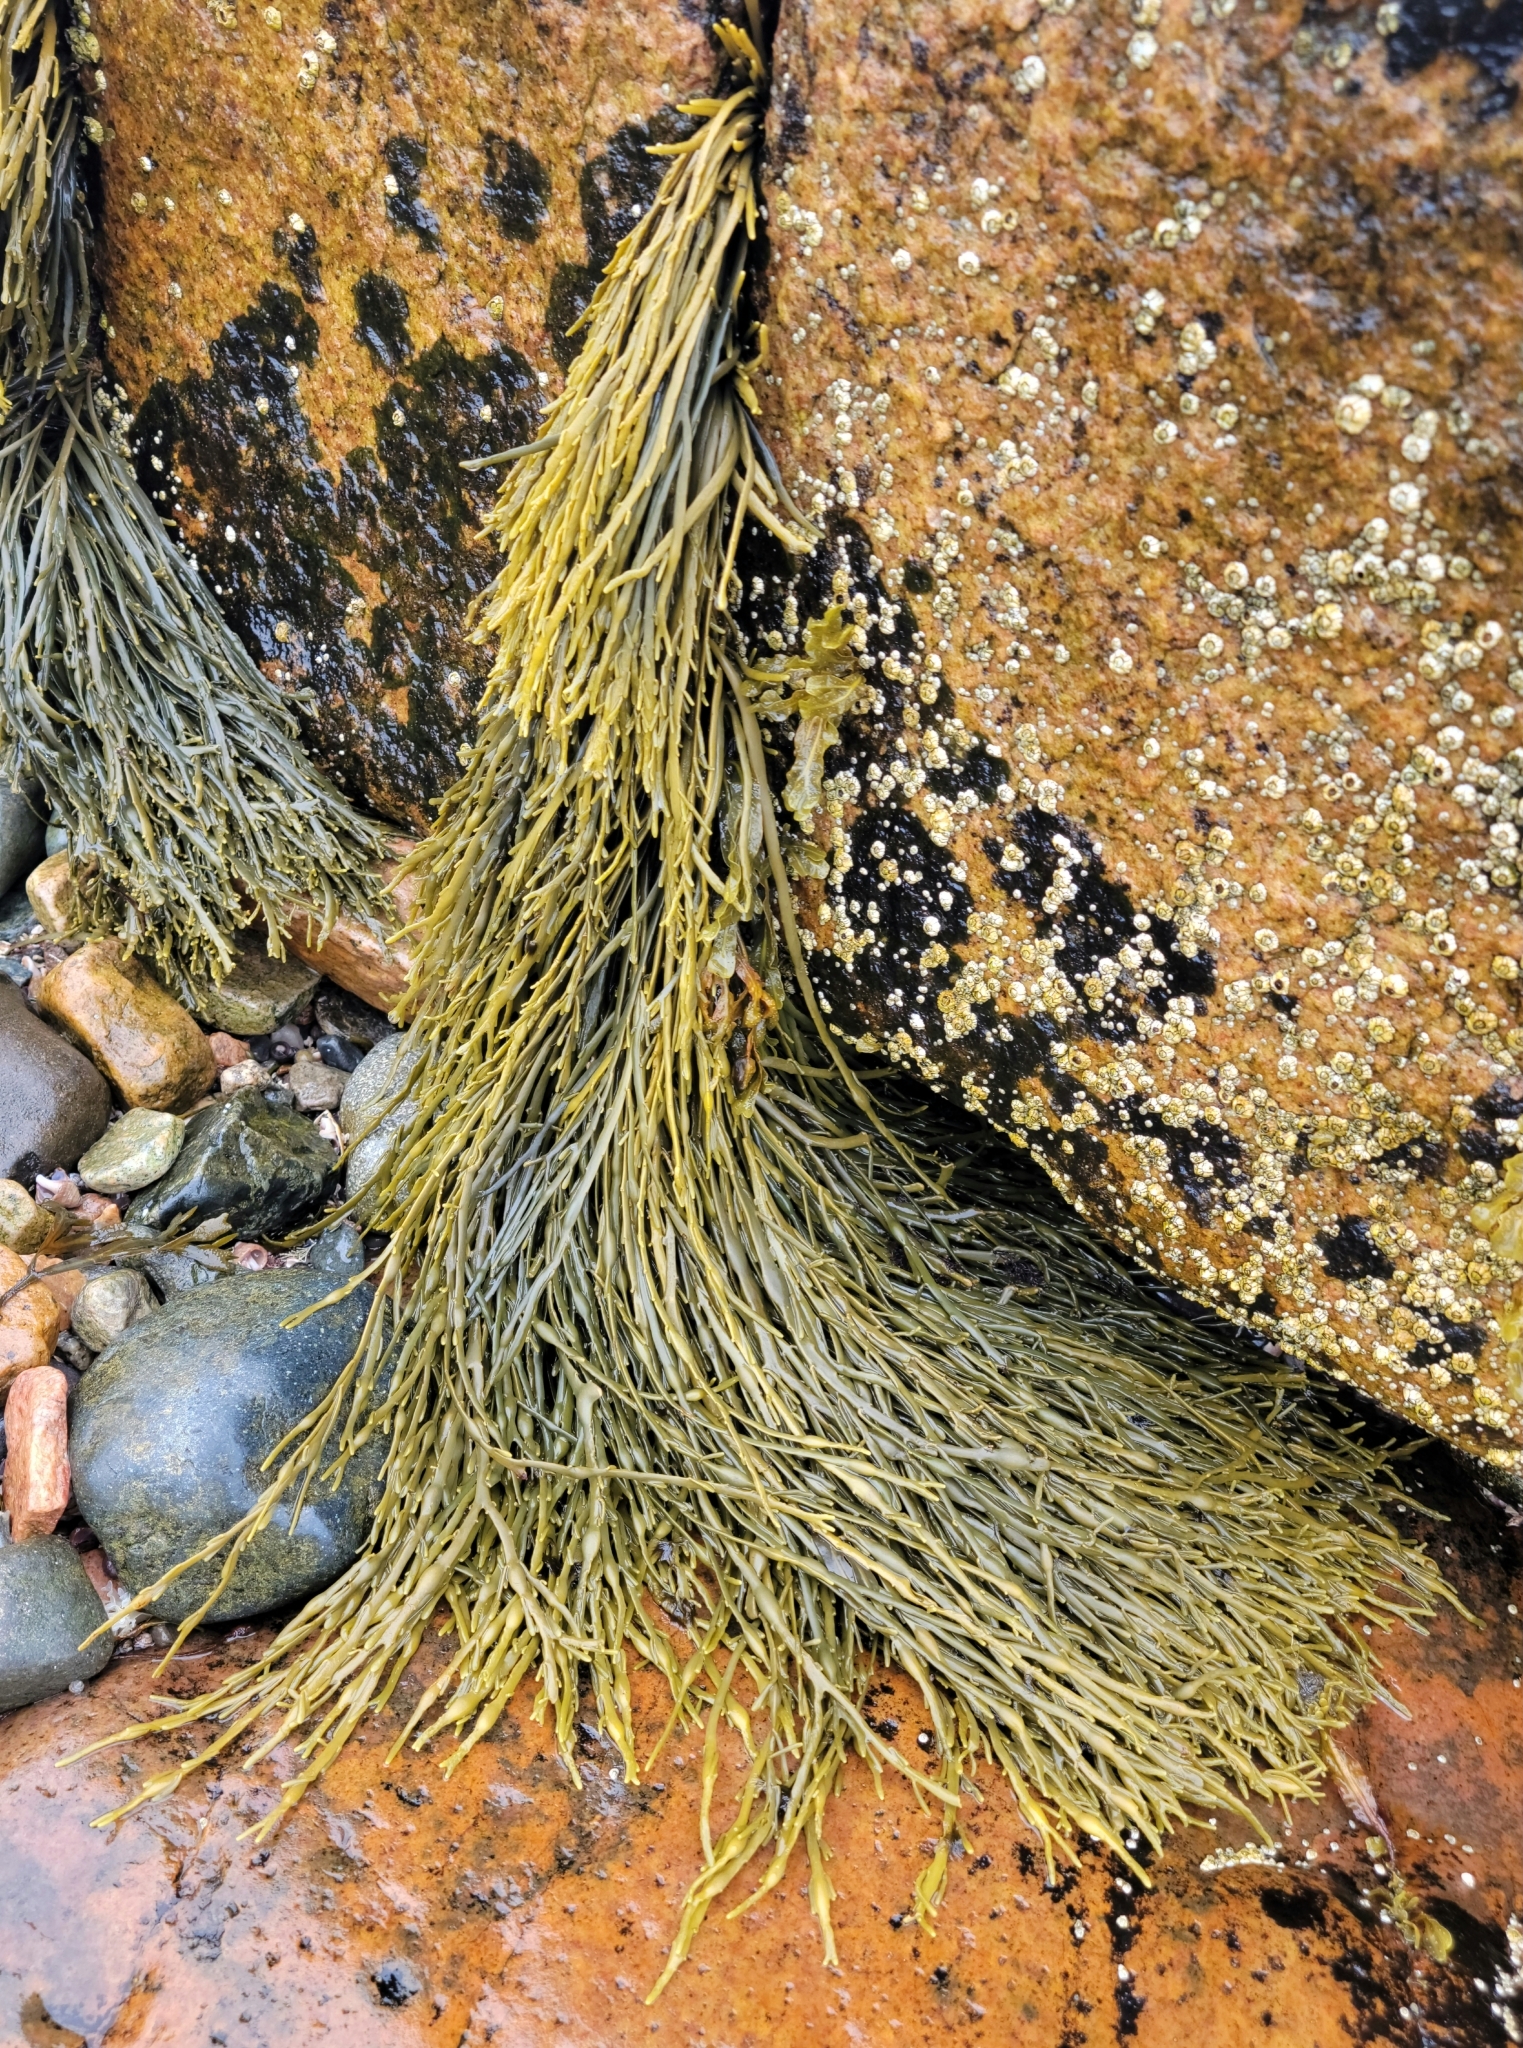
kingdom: Chromista
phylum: Ochrophyta
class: Phaeophyceae
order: Fucales
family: Fucaceae
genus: Ascophyllum
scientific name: Ascophyllum nodosum
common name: Knotted wrack
